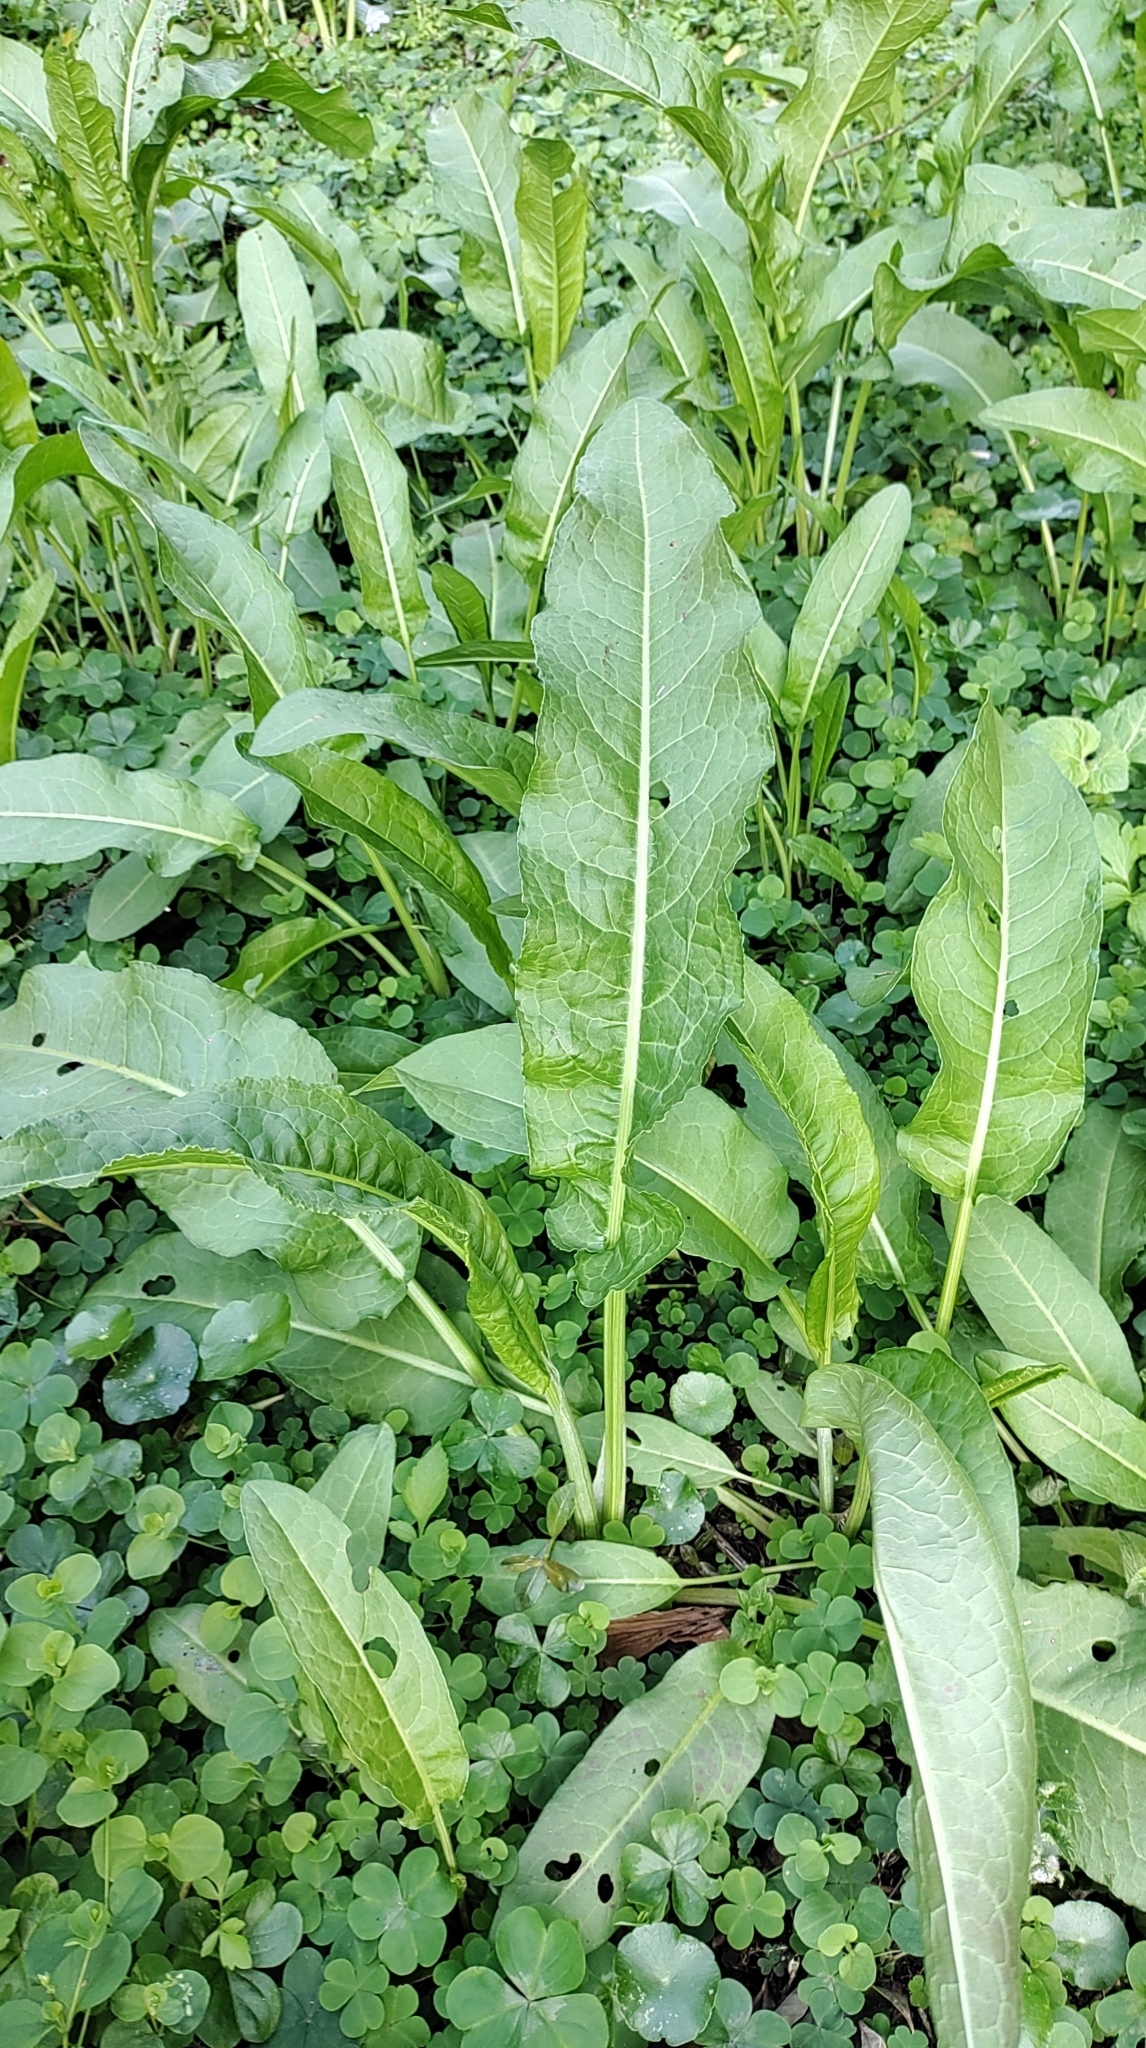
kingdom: Plantae
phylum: Tracheophyta
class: Magnoliopsida
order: Caryophyllales
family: Polygonaceae
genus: Rumex
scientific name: Rumex japonicus
